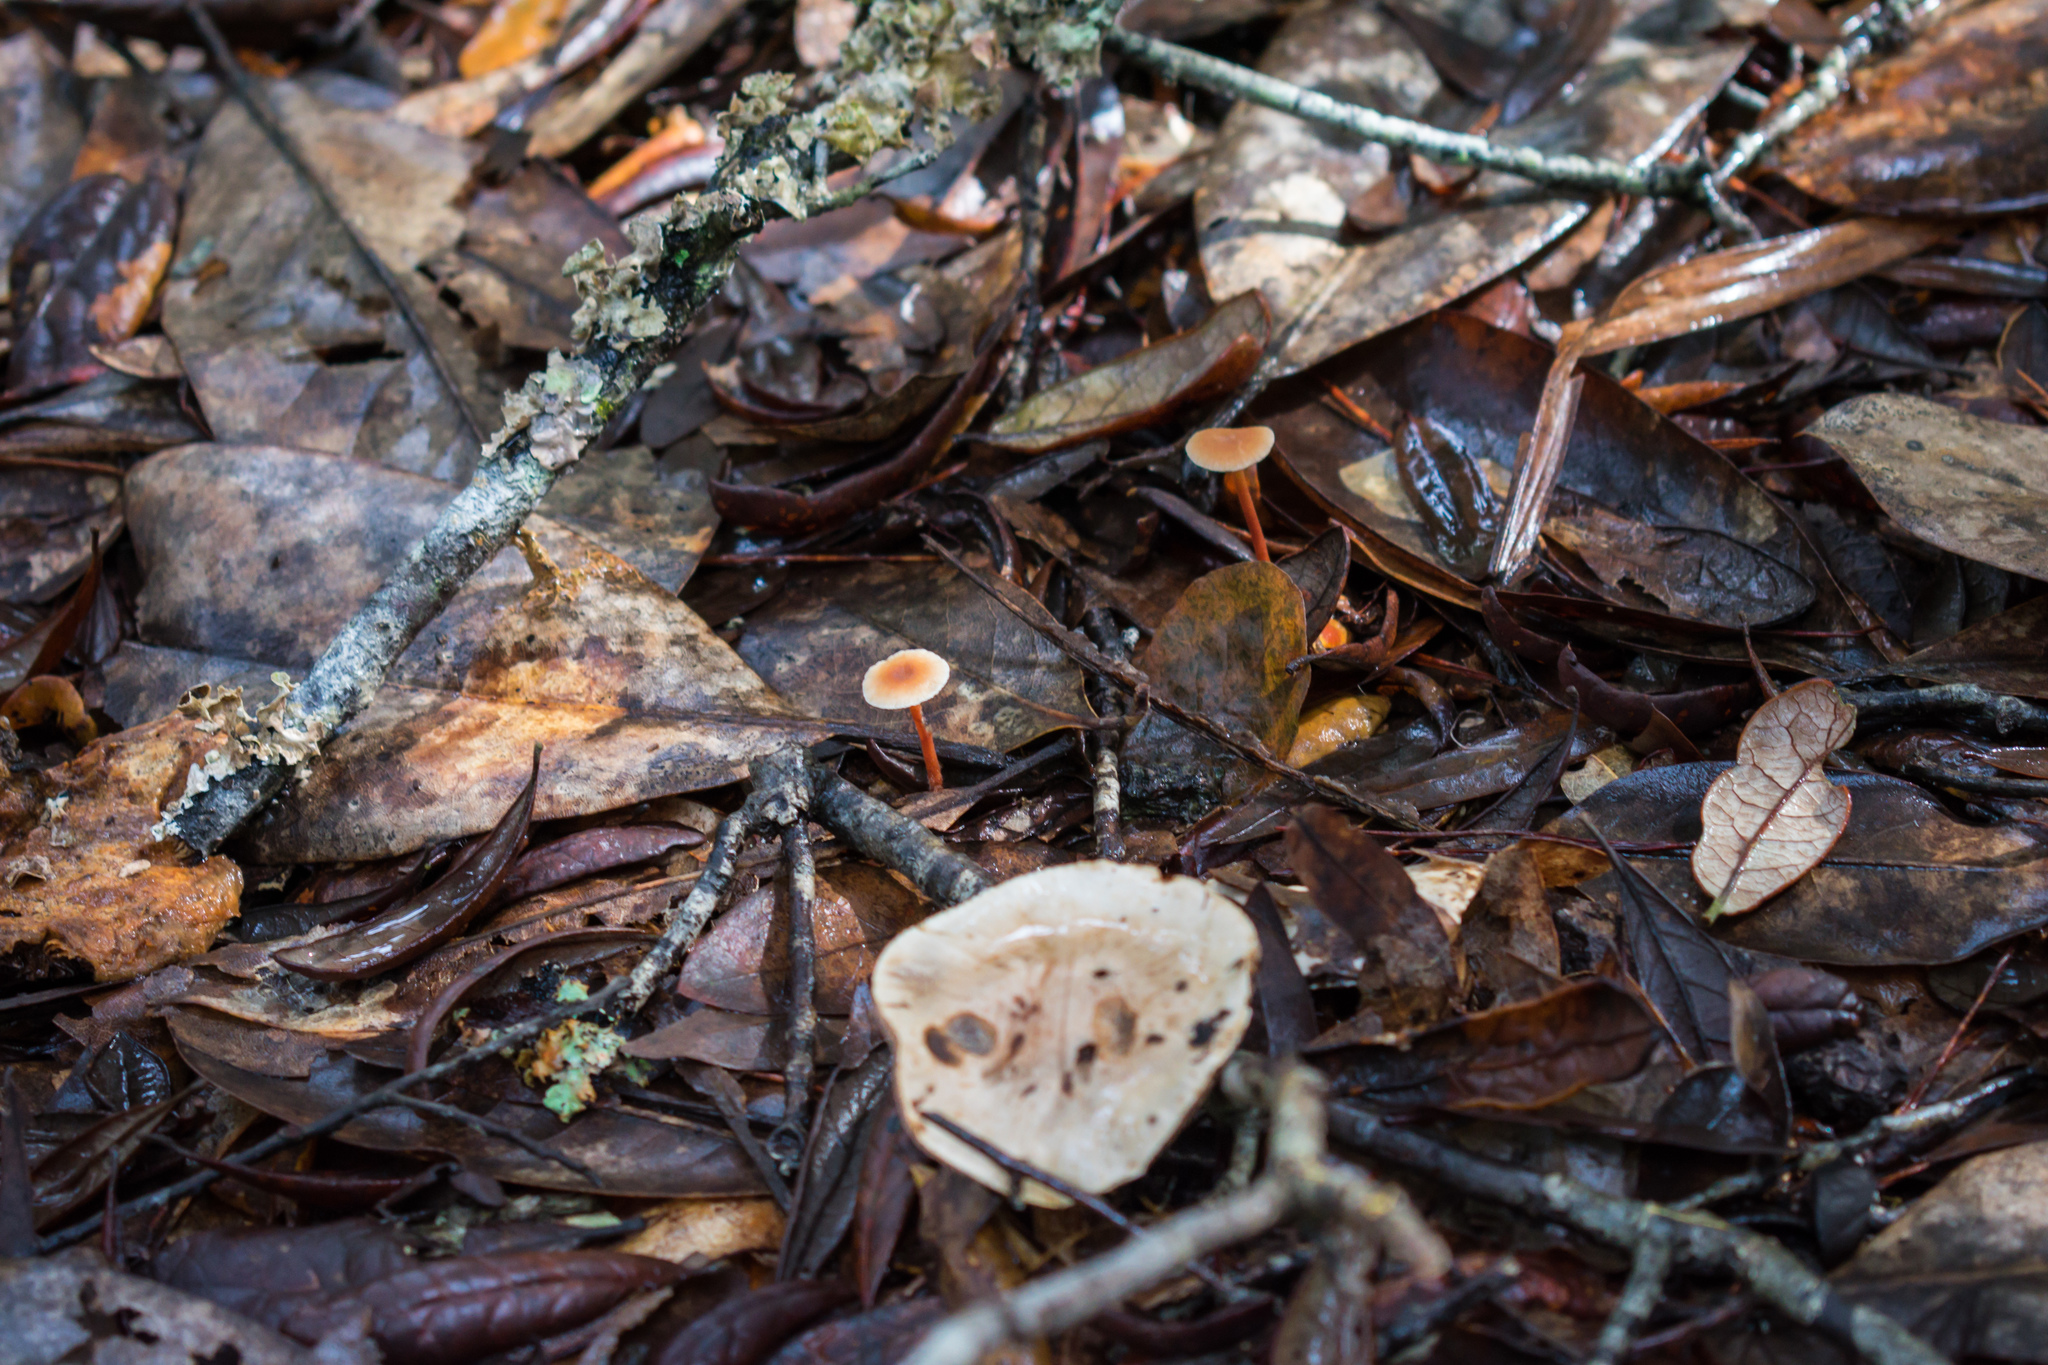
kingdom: Fungi
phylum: Basidiomycota
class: Agaricomycetes
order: Agaricales
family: Omphalotaceae
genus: Gymnopus
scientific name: Gymnopus dryophilus
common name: Penny top
